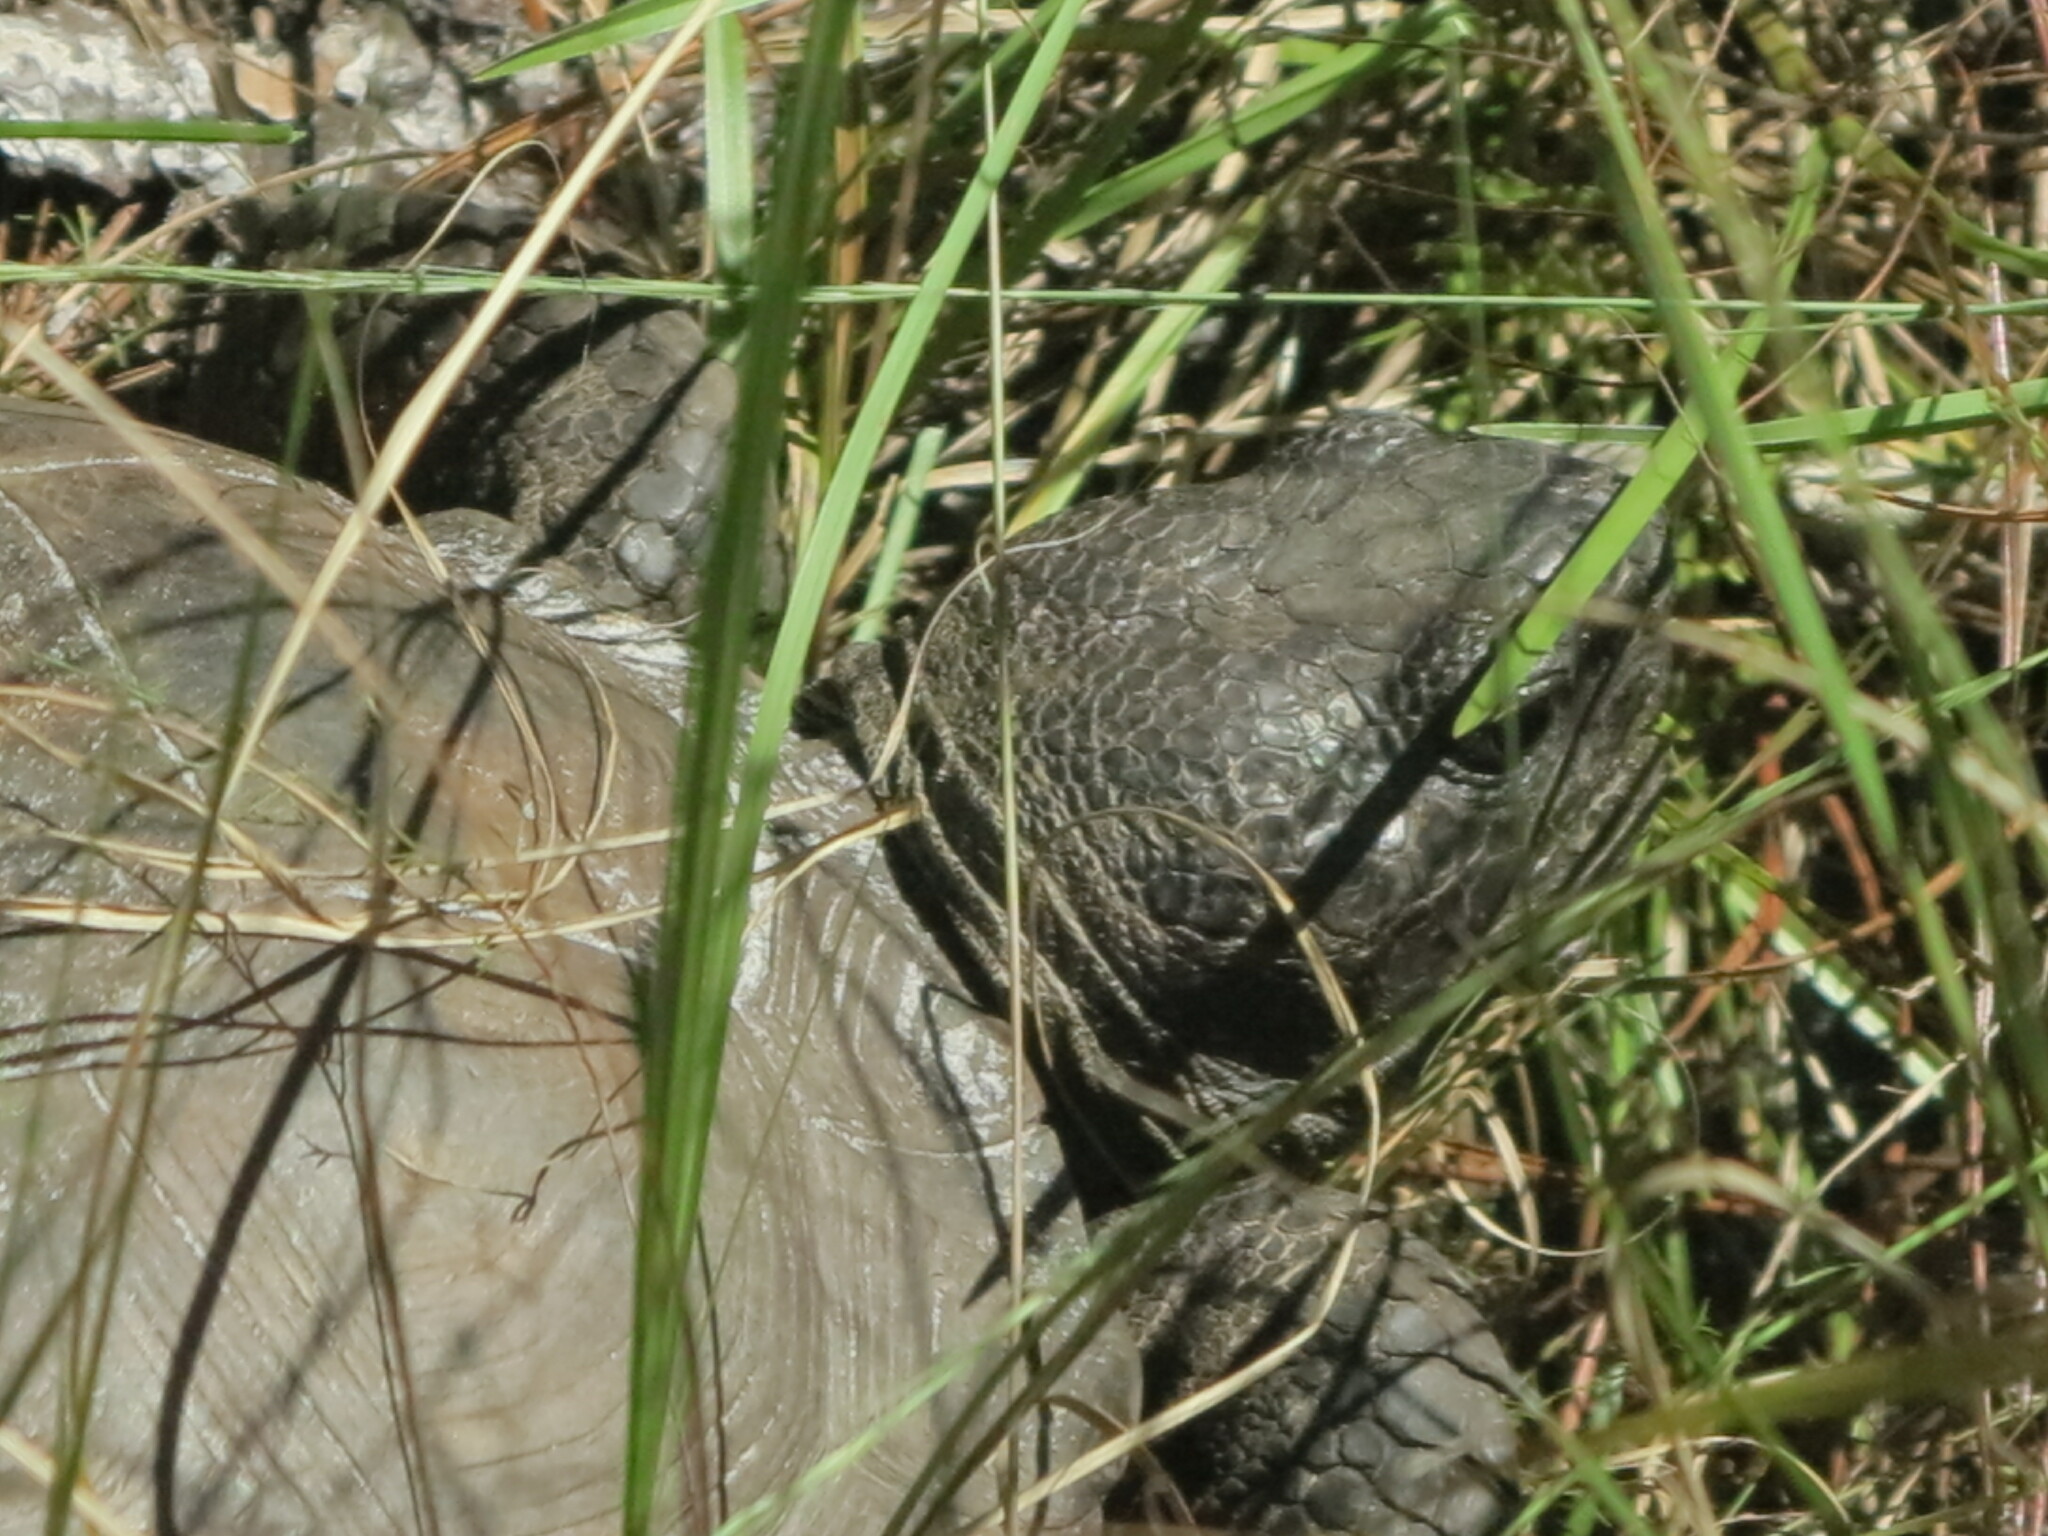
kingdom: Animalia
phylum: Chordata
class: Testudines
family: Testudinidae
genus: Gopherus
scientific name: Gopherus polyphemus
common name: Florida gopher tortoise
